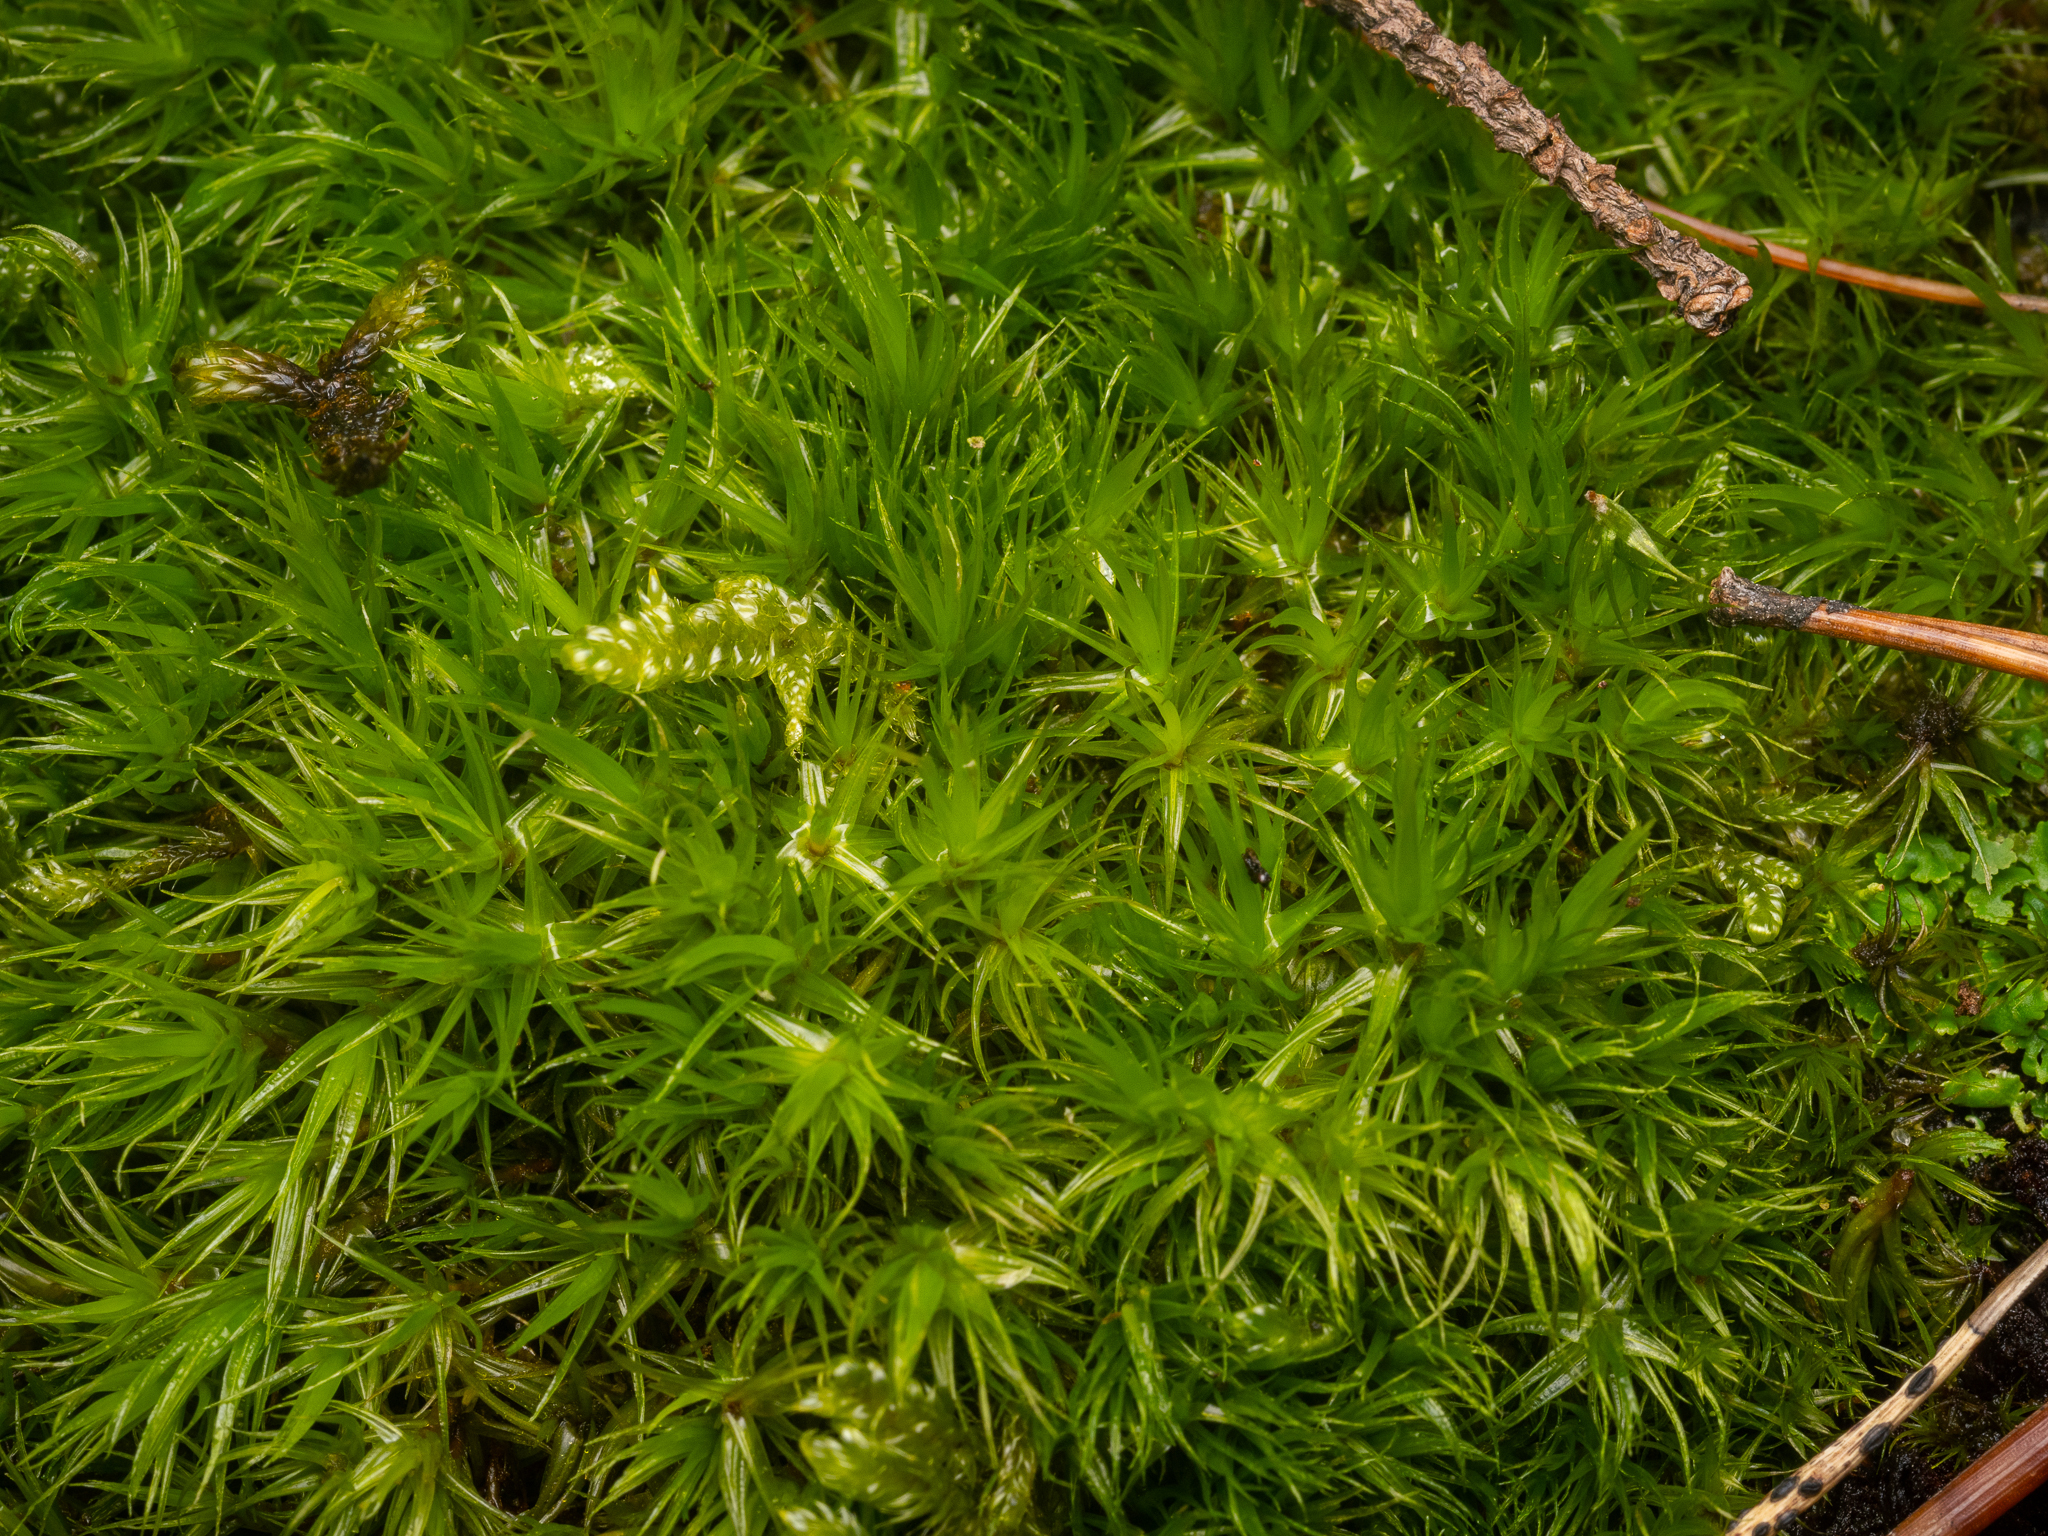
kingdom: Plantae
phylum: Bryophyta
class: Bryopsida
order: Dicranales
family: Dicranaceae
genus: Dicranum
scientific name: Dicranum scoparium
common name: Broom fork-moss
